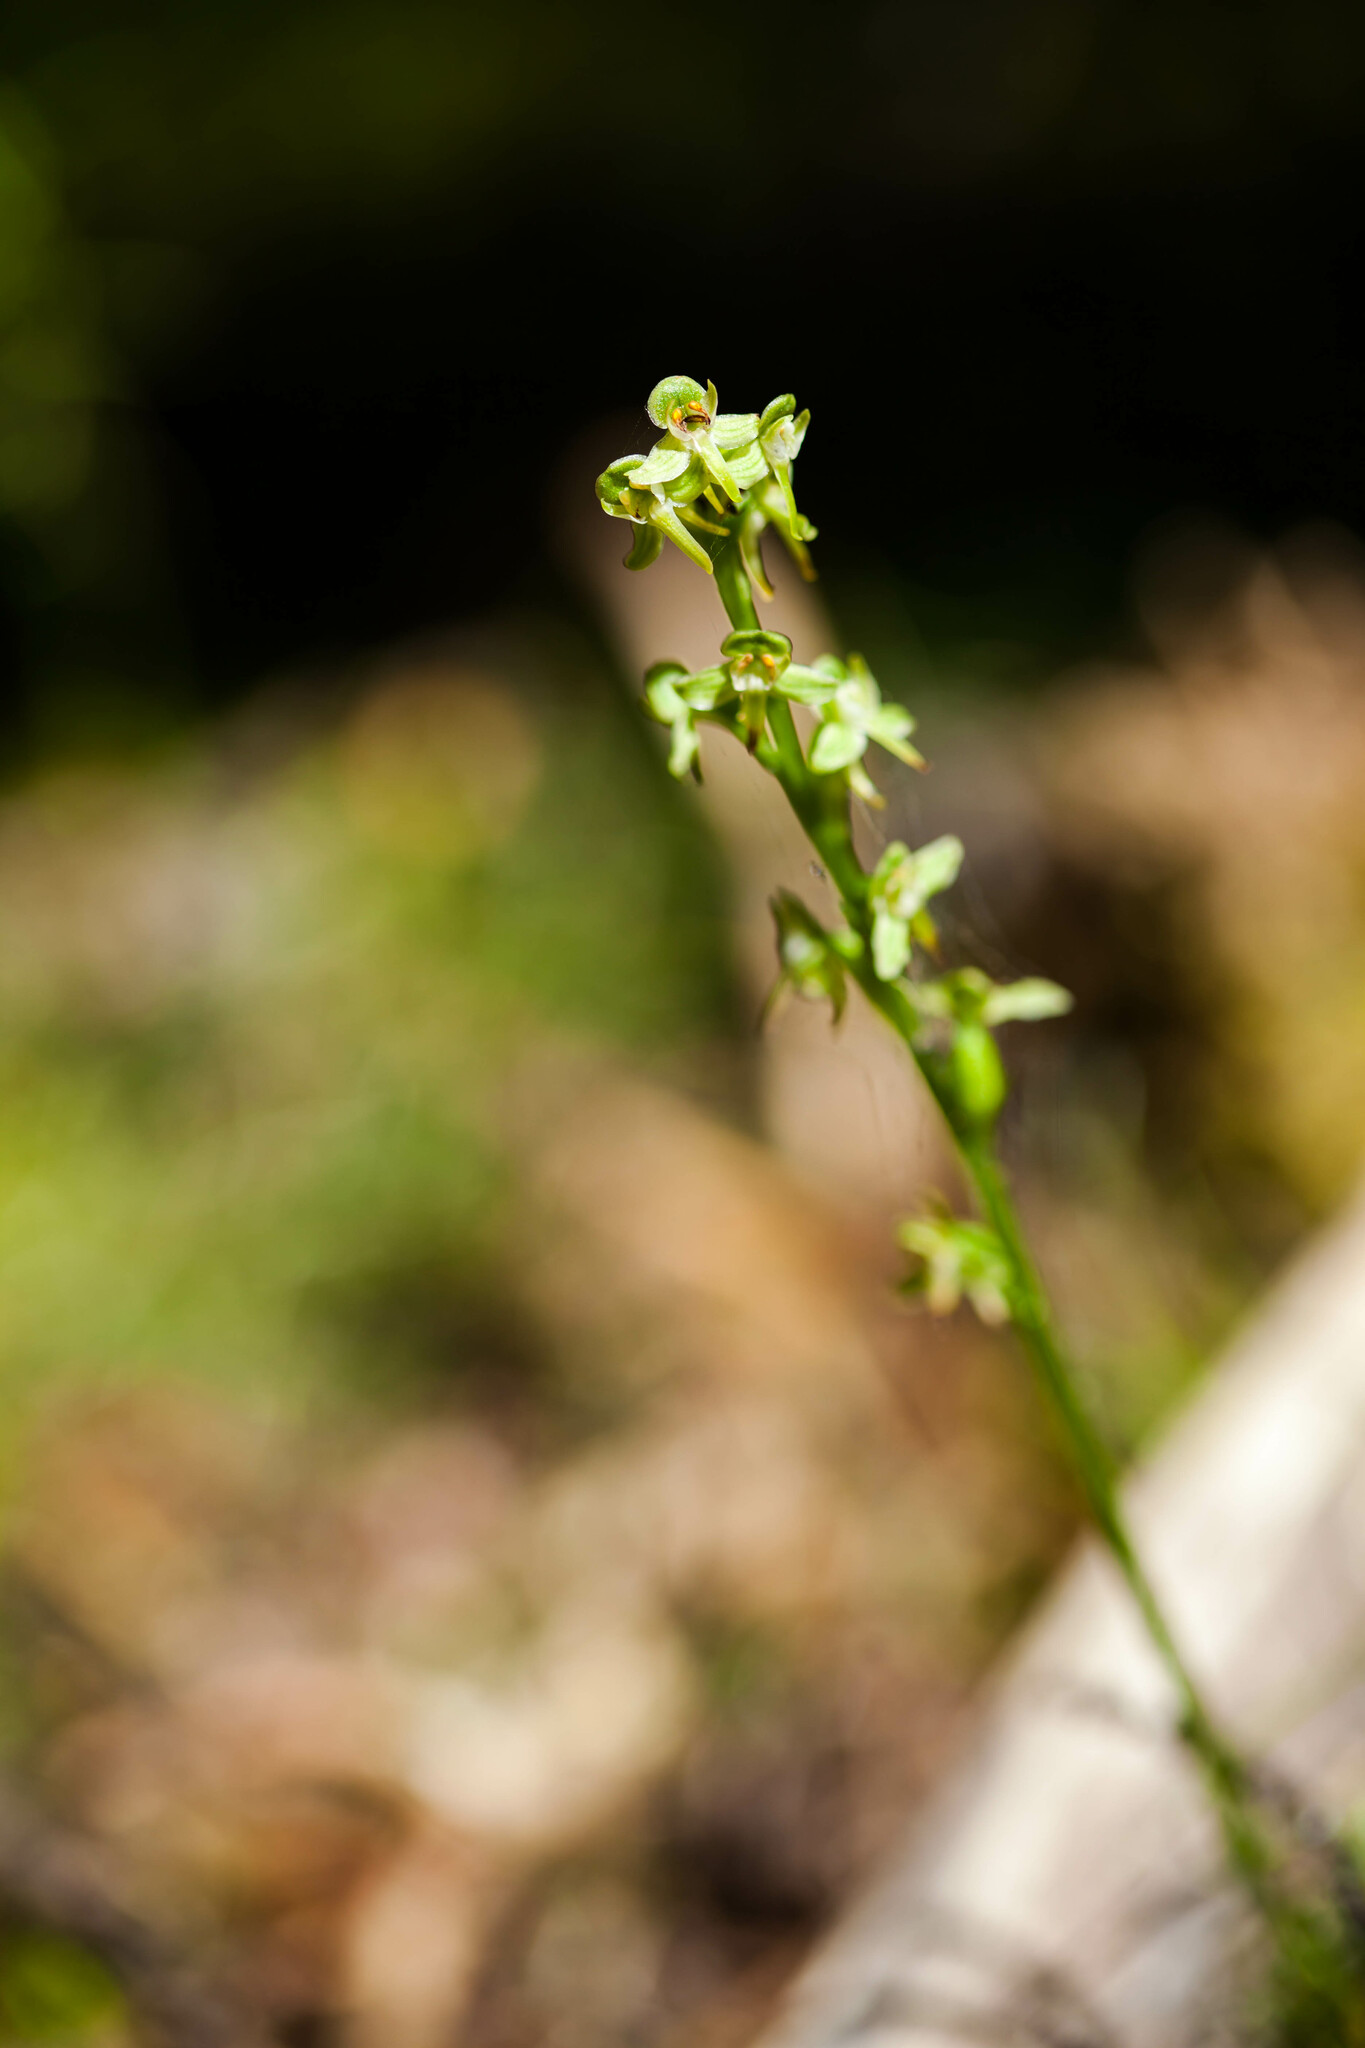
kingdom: Plantae
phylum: Tracheophyta
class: Liliopsida
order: Asparagales
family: Orchidaceae
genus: Platanthera
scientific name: Platanthera obtusata
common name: Blunt bog orchid
